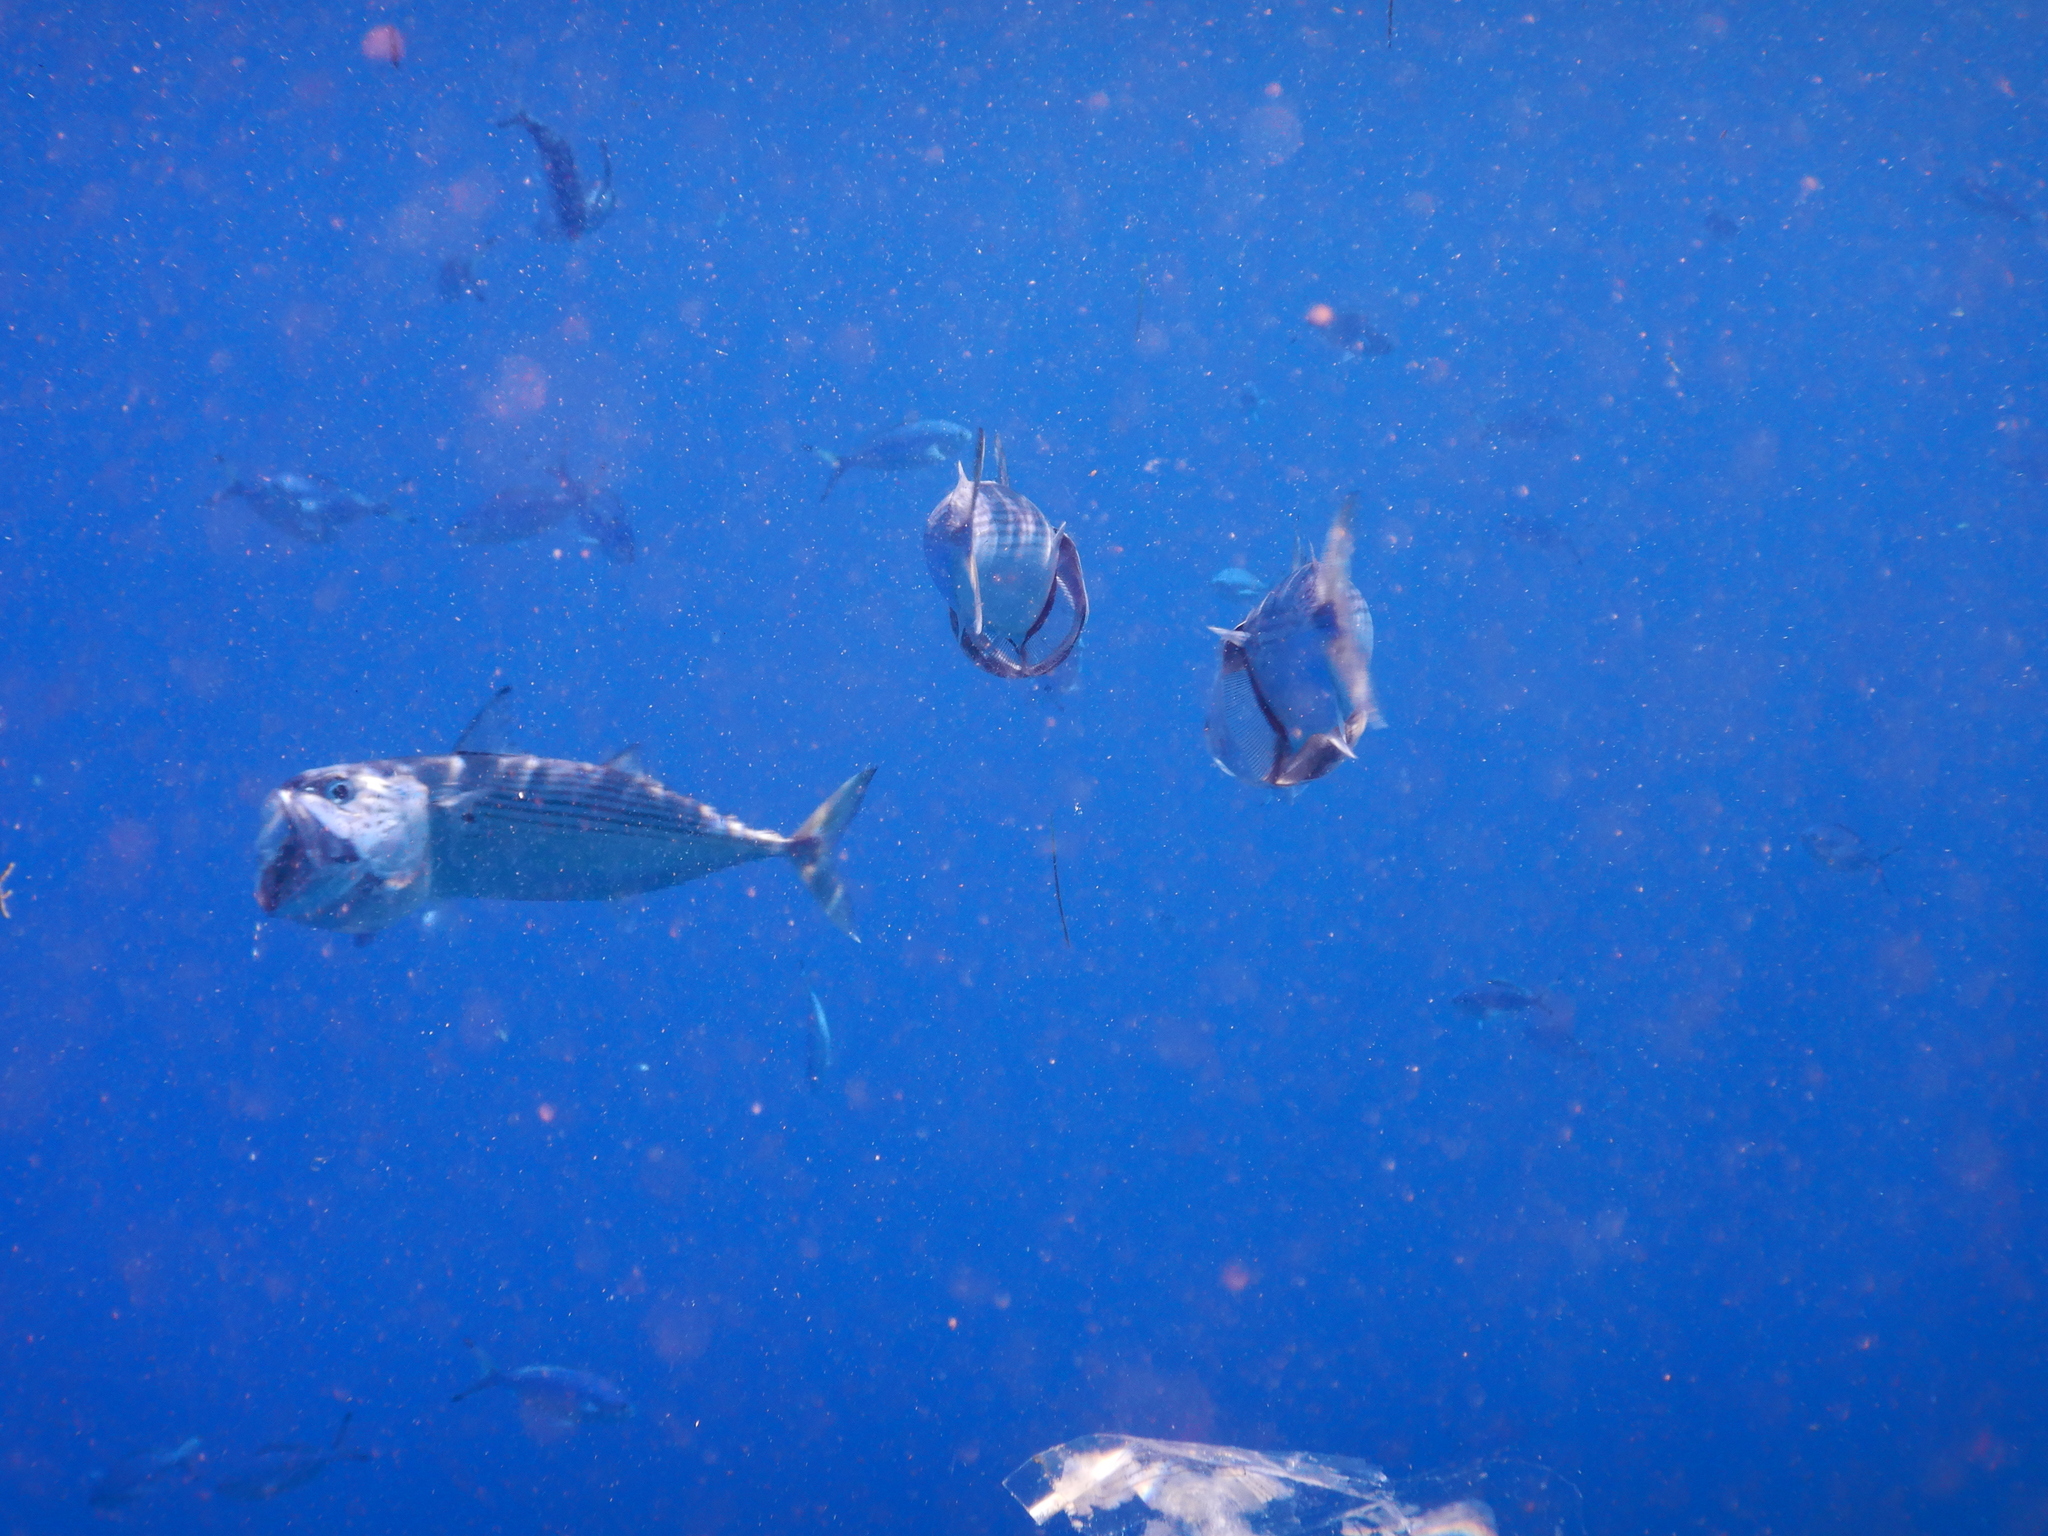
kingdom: Animalia
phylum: Chordata
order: Perciformes
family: Scombridae
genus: Rastrelliger
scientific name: Rastrelliger kanagurta
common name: Indian mackerel
